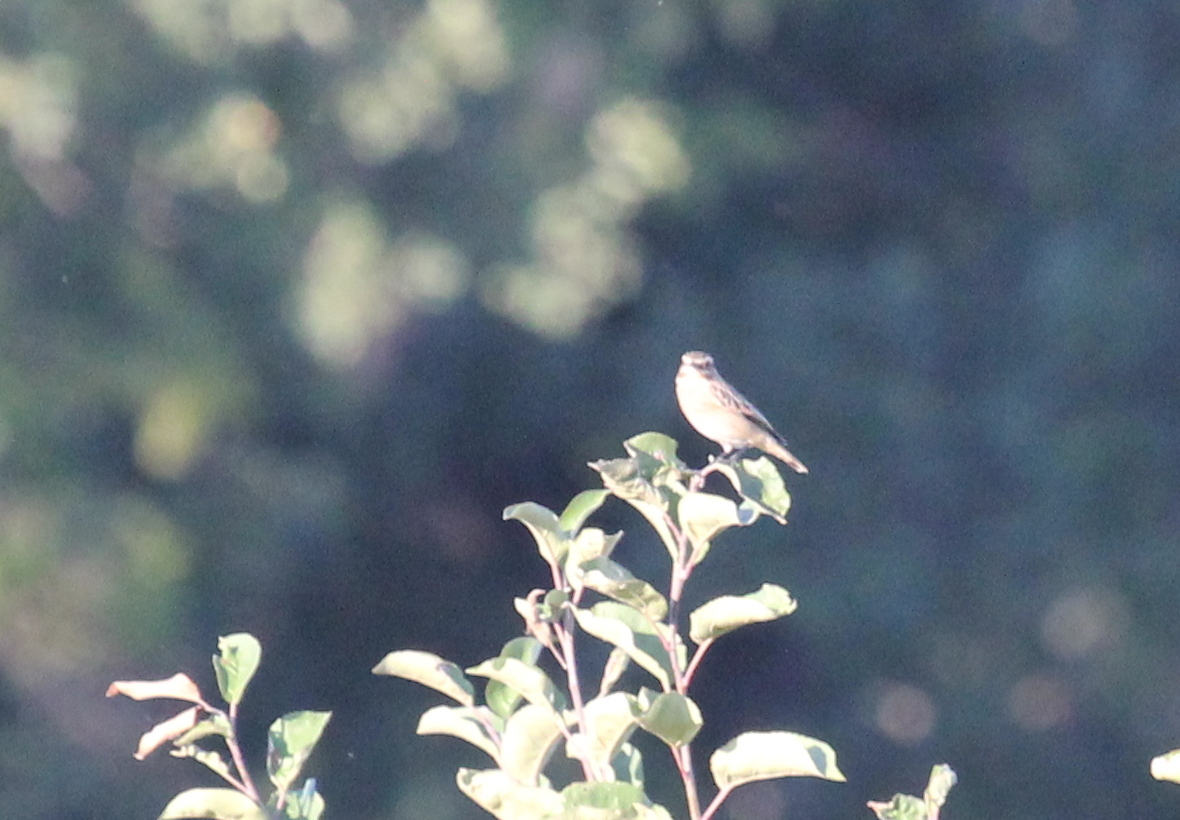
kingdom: Animalia
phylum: Chordata
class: Aves
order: Passeriformes
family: Muscicapidae
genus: Saxicola
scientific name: Saxicola rubetra
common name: Whinchat
